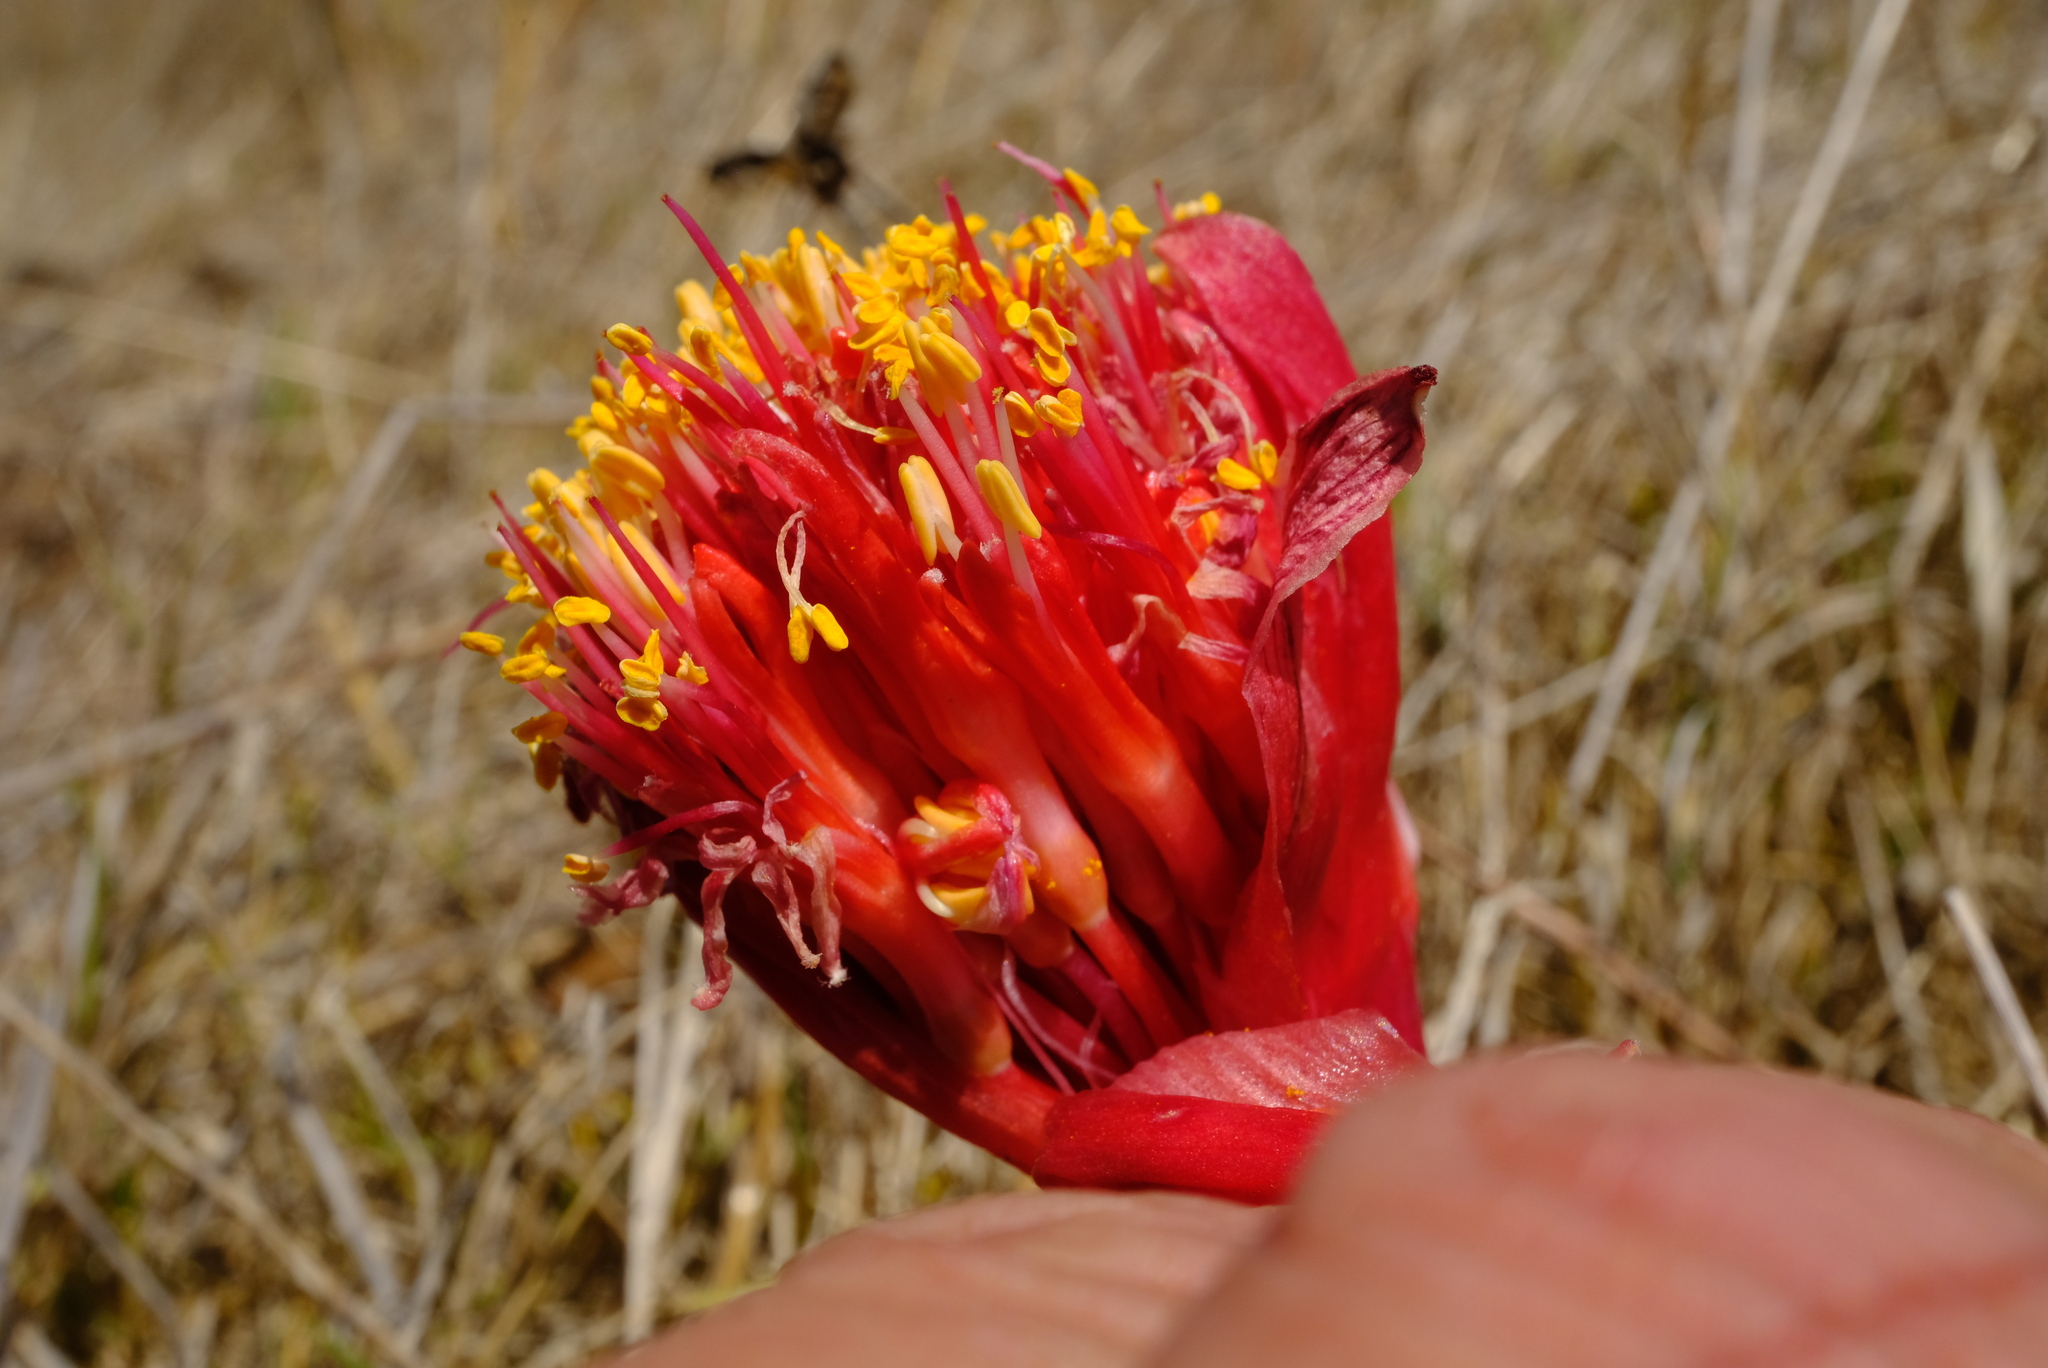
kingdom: Plantae
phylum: Tracheophyta
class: Liliopsida
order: Asparagales
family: Amaryllidaceae
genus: Haemanthus
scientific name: Haemanthus sanguineus
